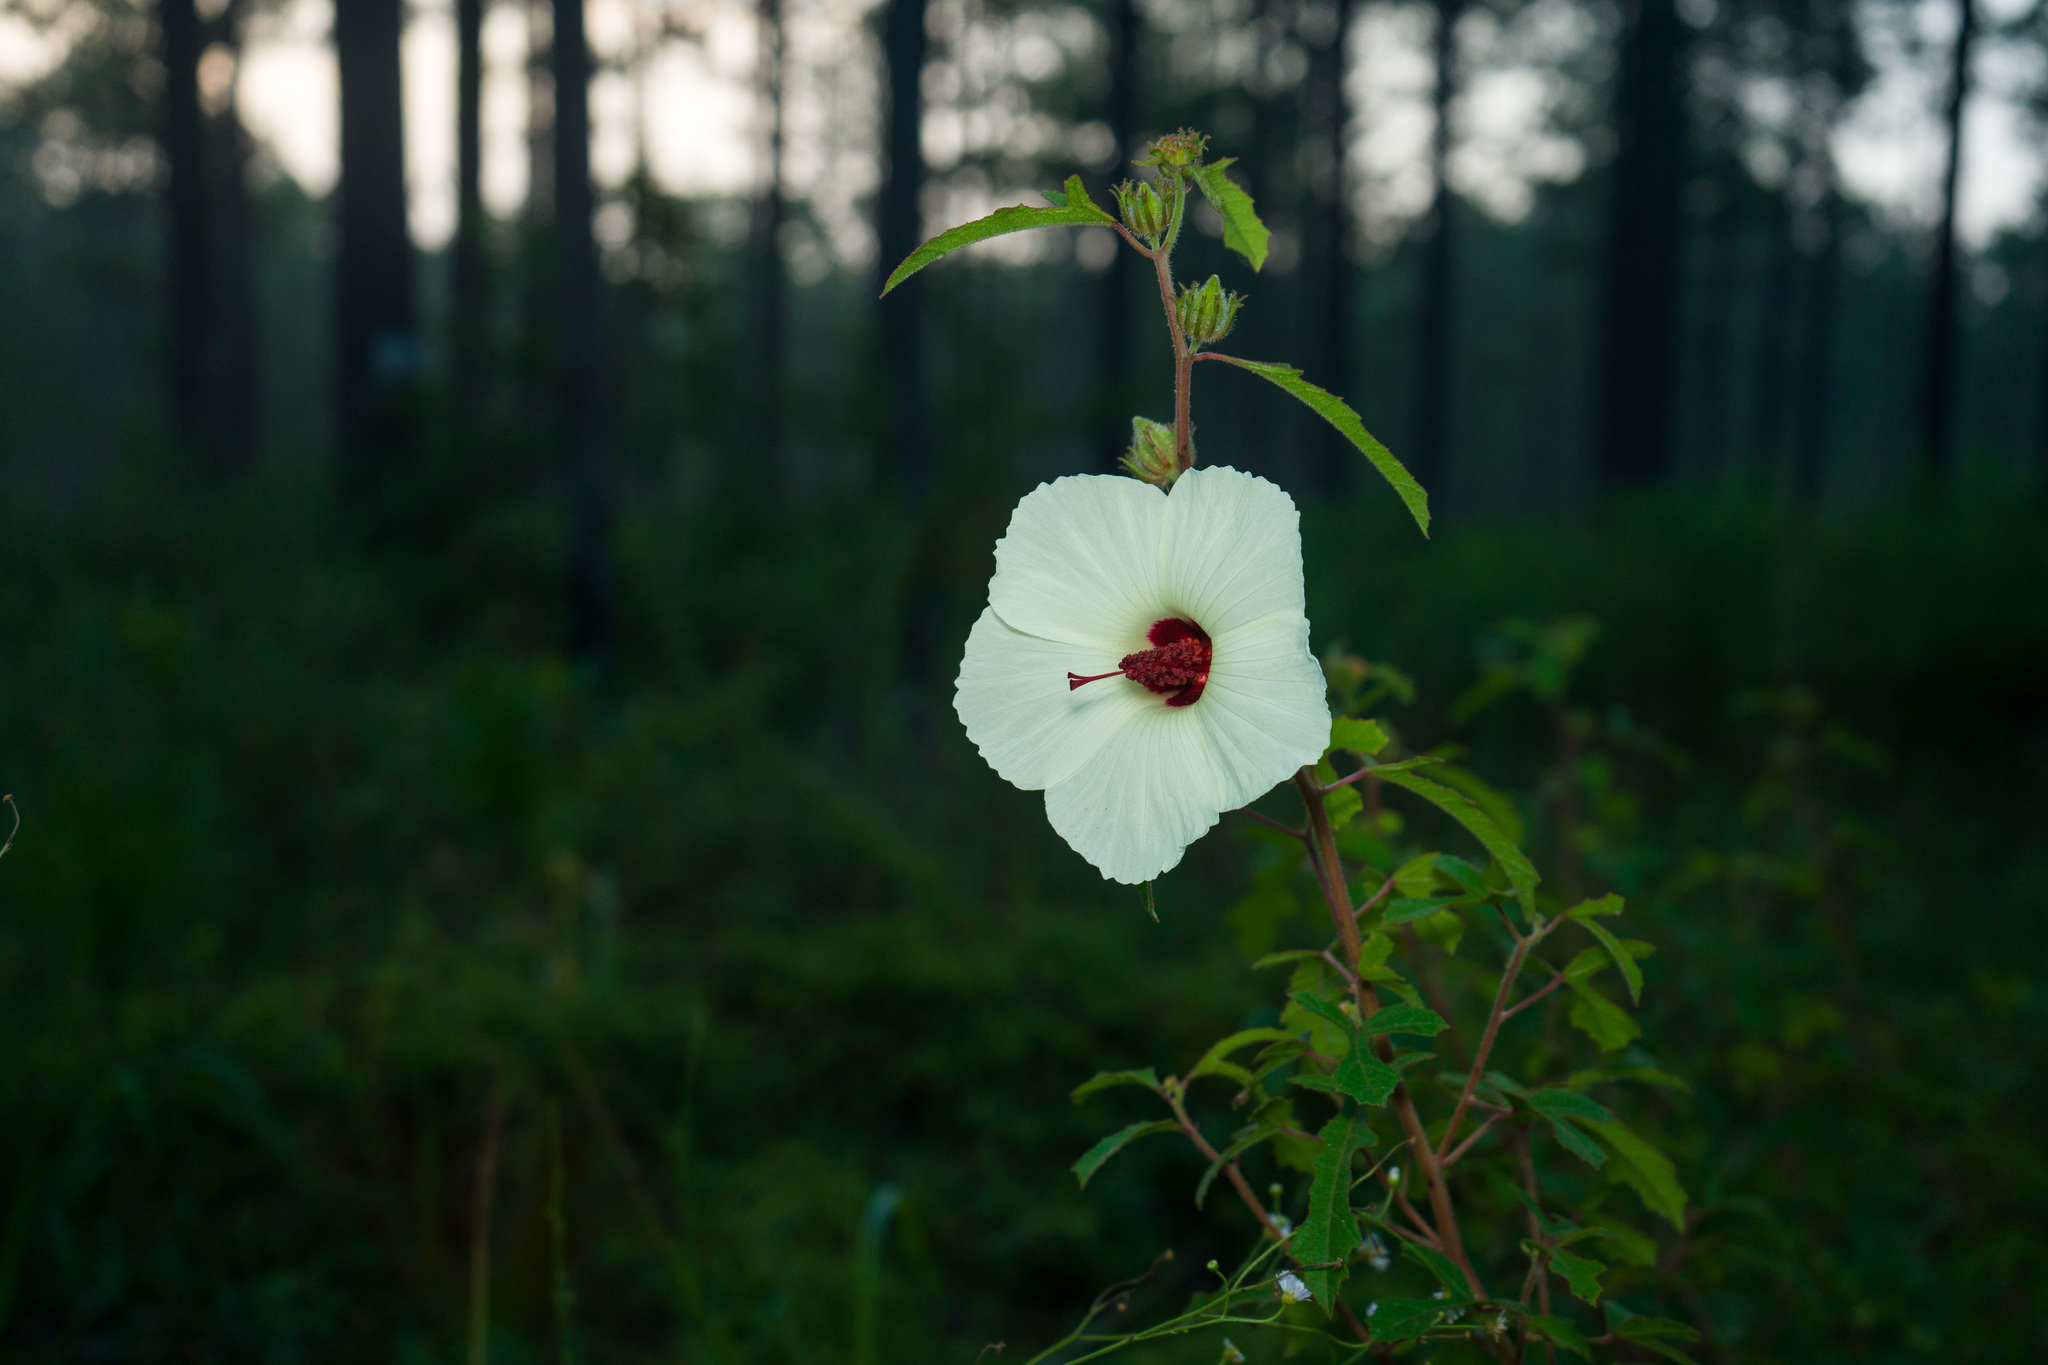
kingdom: Plantae
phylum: Tracheophyta
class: Magnoliopsida
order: Malvales
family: Malvaceae
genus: Hibiscus
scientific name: Hibiscus aculeatus
